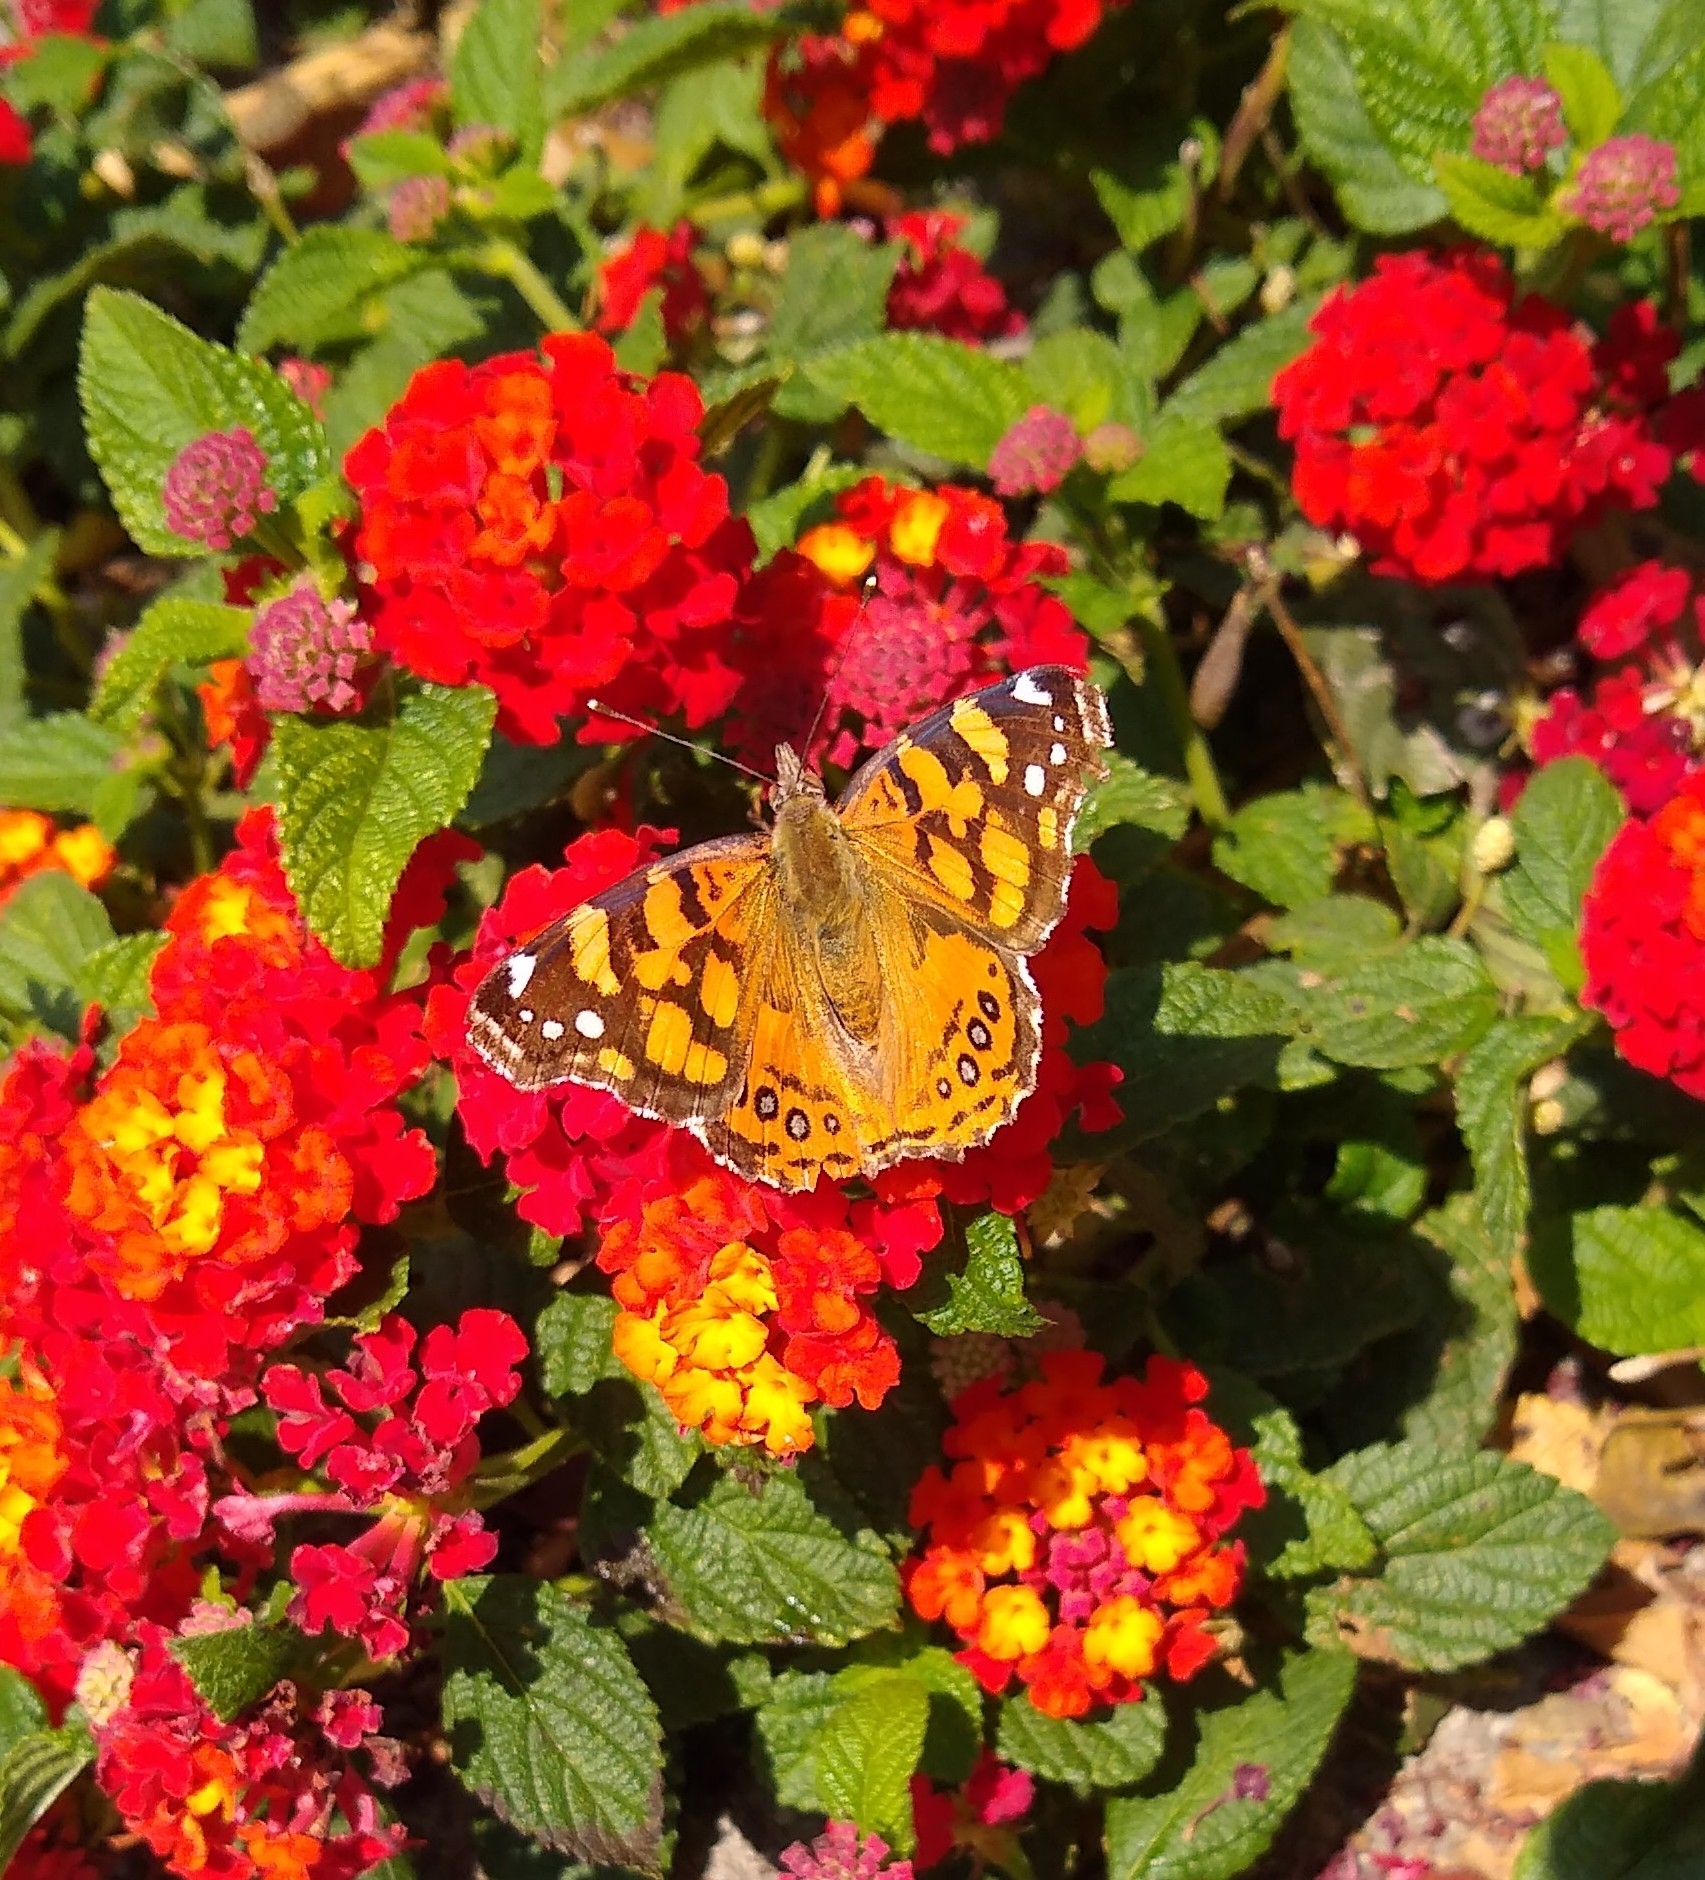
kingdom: Animalia
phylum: Arthropoda
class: Insecta
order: Lepidoptera
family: Nymphalidae
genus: Vanessa
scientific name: Vanessa annabella
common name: West coast lady
